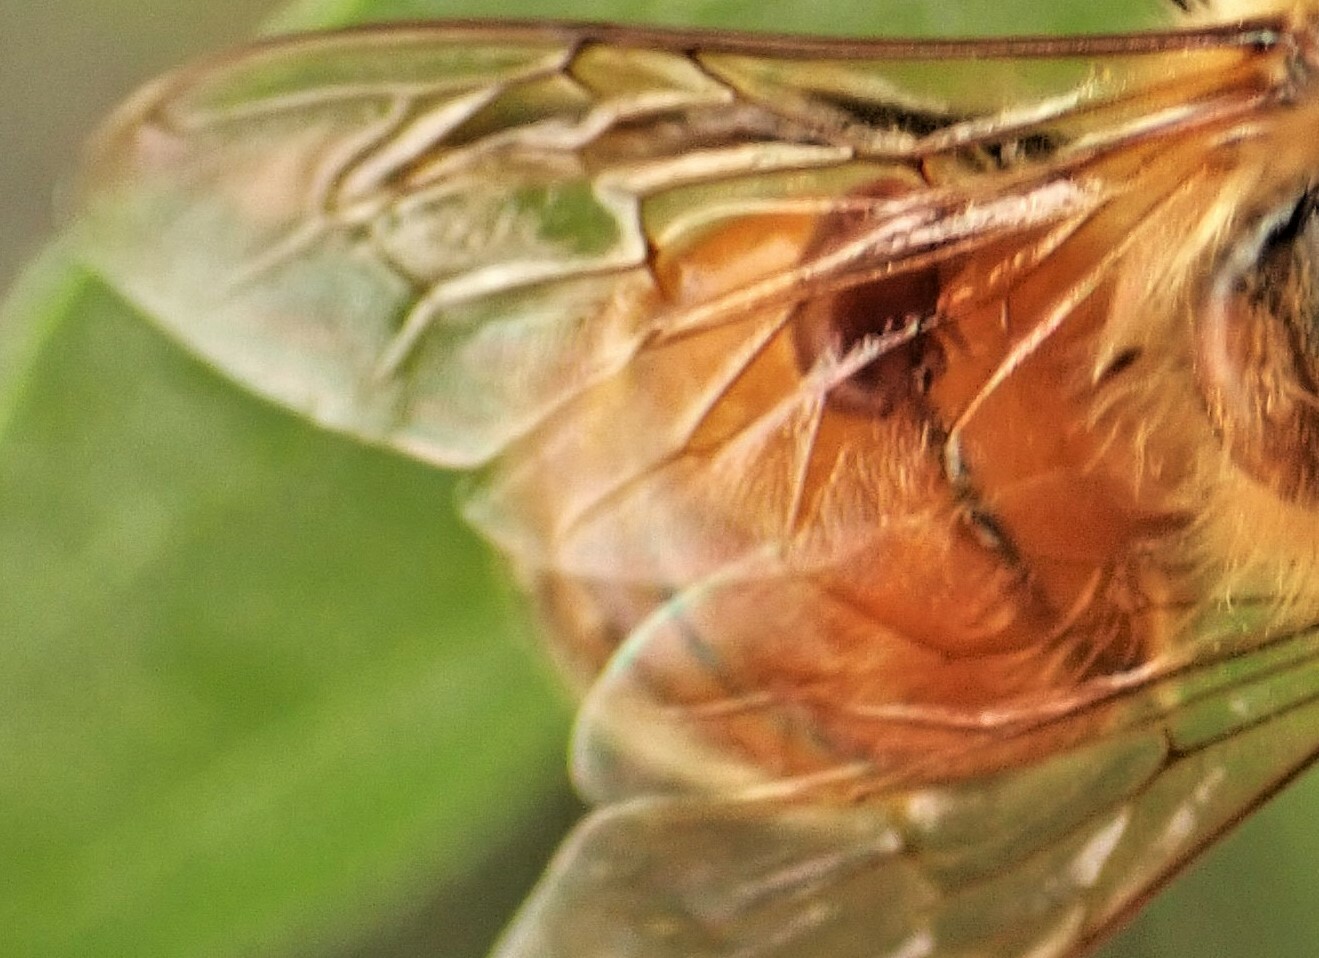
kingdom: Animalia
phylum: Arthropoda
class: Arachnida
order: Mesostigmata
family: Varroidae
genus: Varroa
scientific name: Varroa destructor
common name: Honey bee mite
